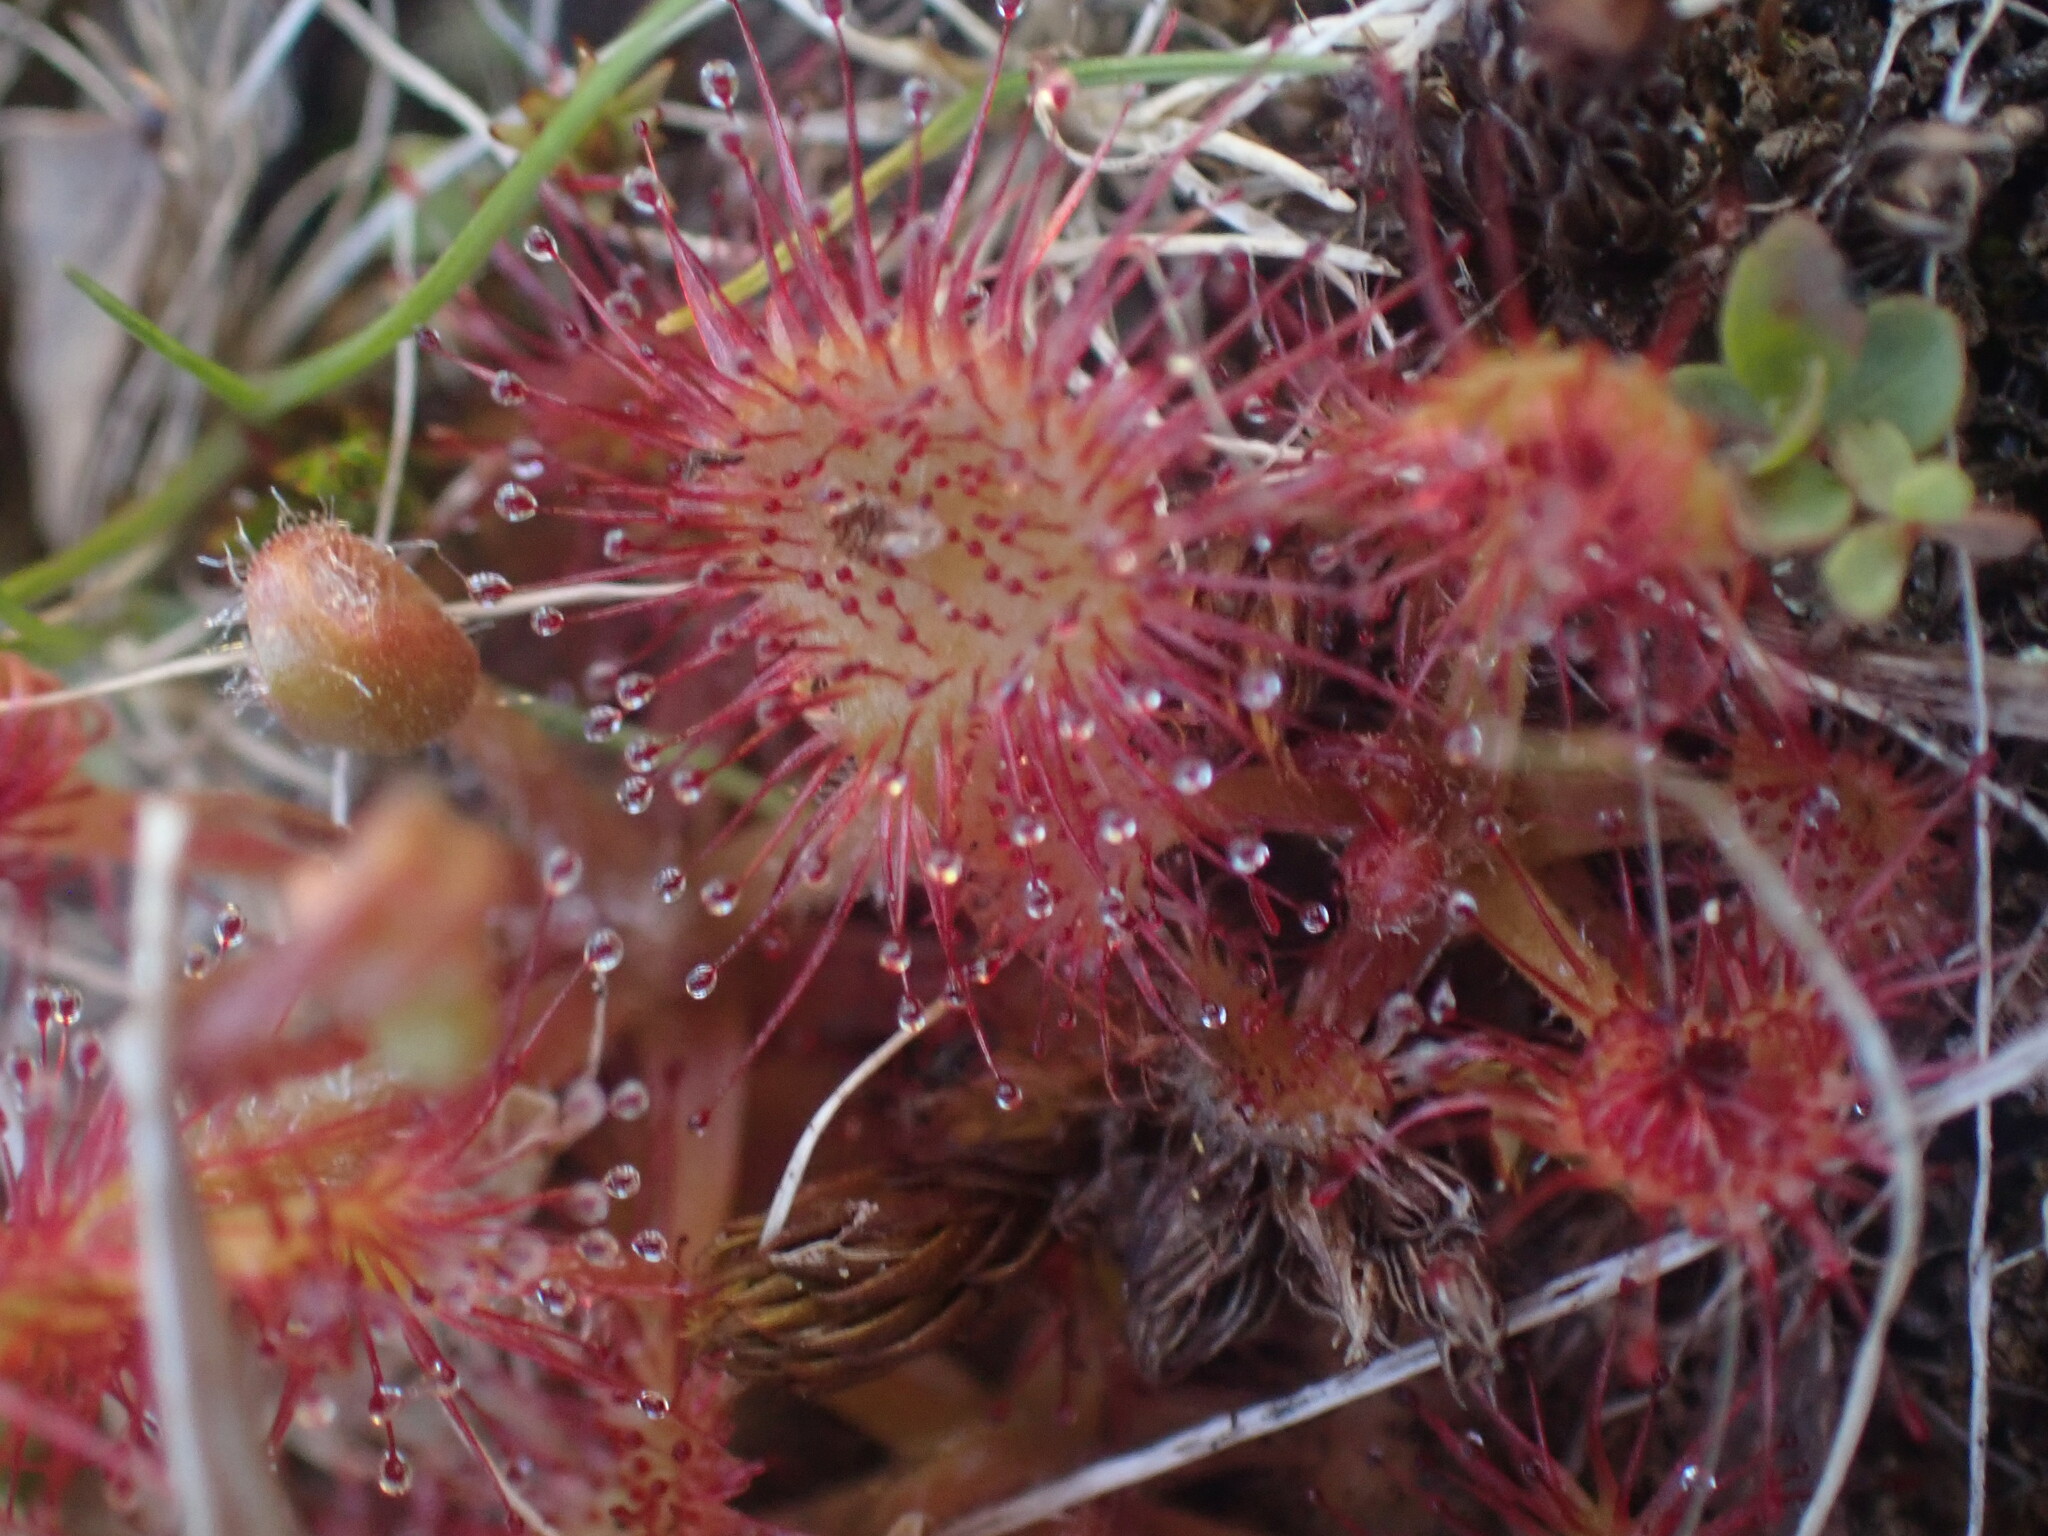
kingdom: Plantae
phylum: Tracheophyta
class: Magnoliopsida
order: Caryophyllales
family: Droseraceae
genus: Drosera
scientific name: Drosera rotundifolia
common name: Round-leaved sundew
